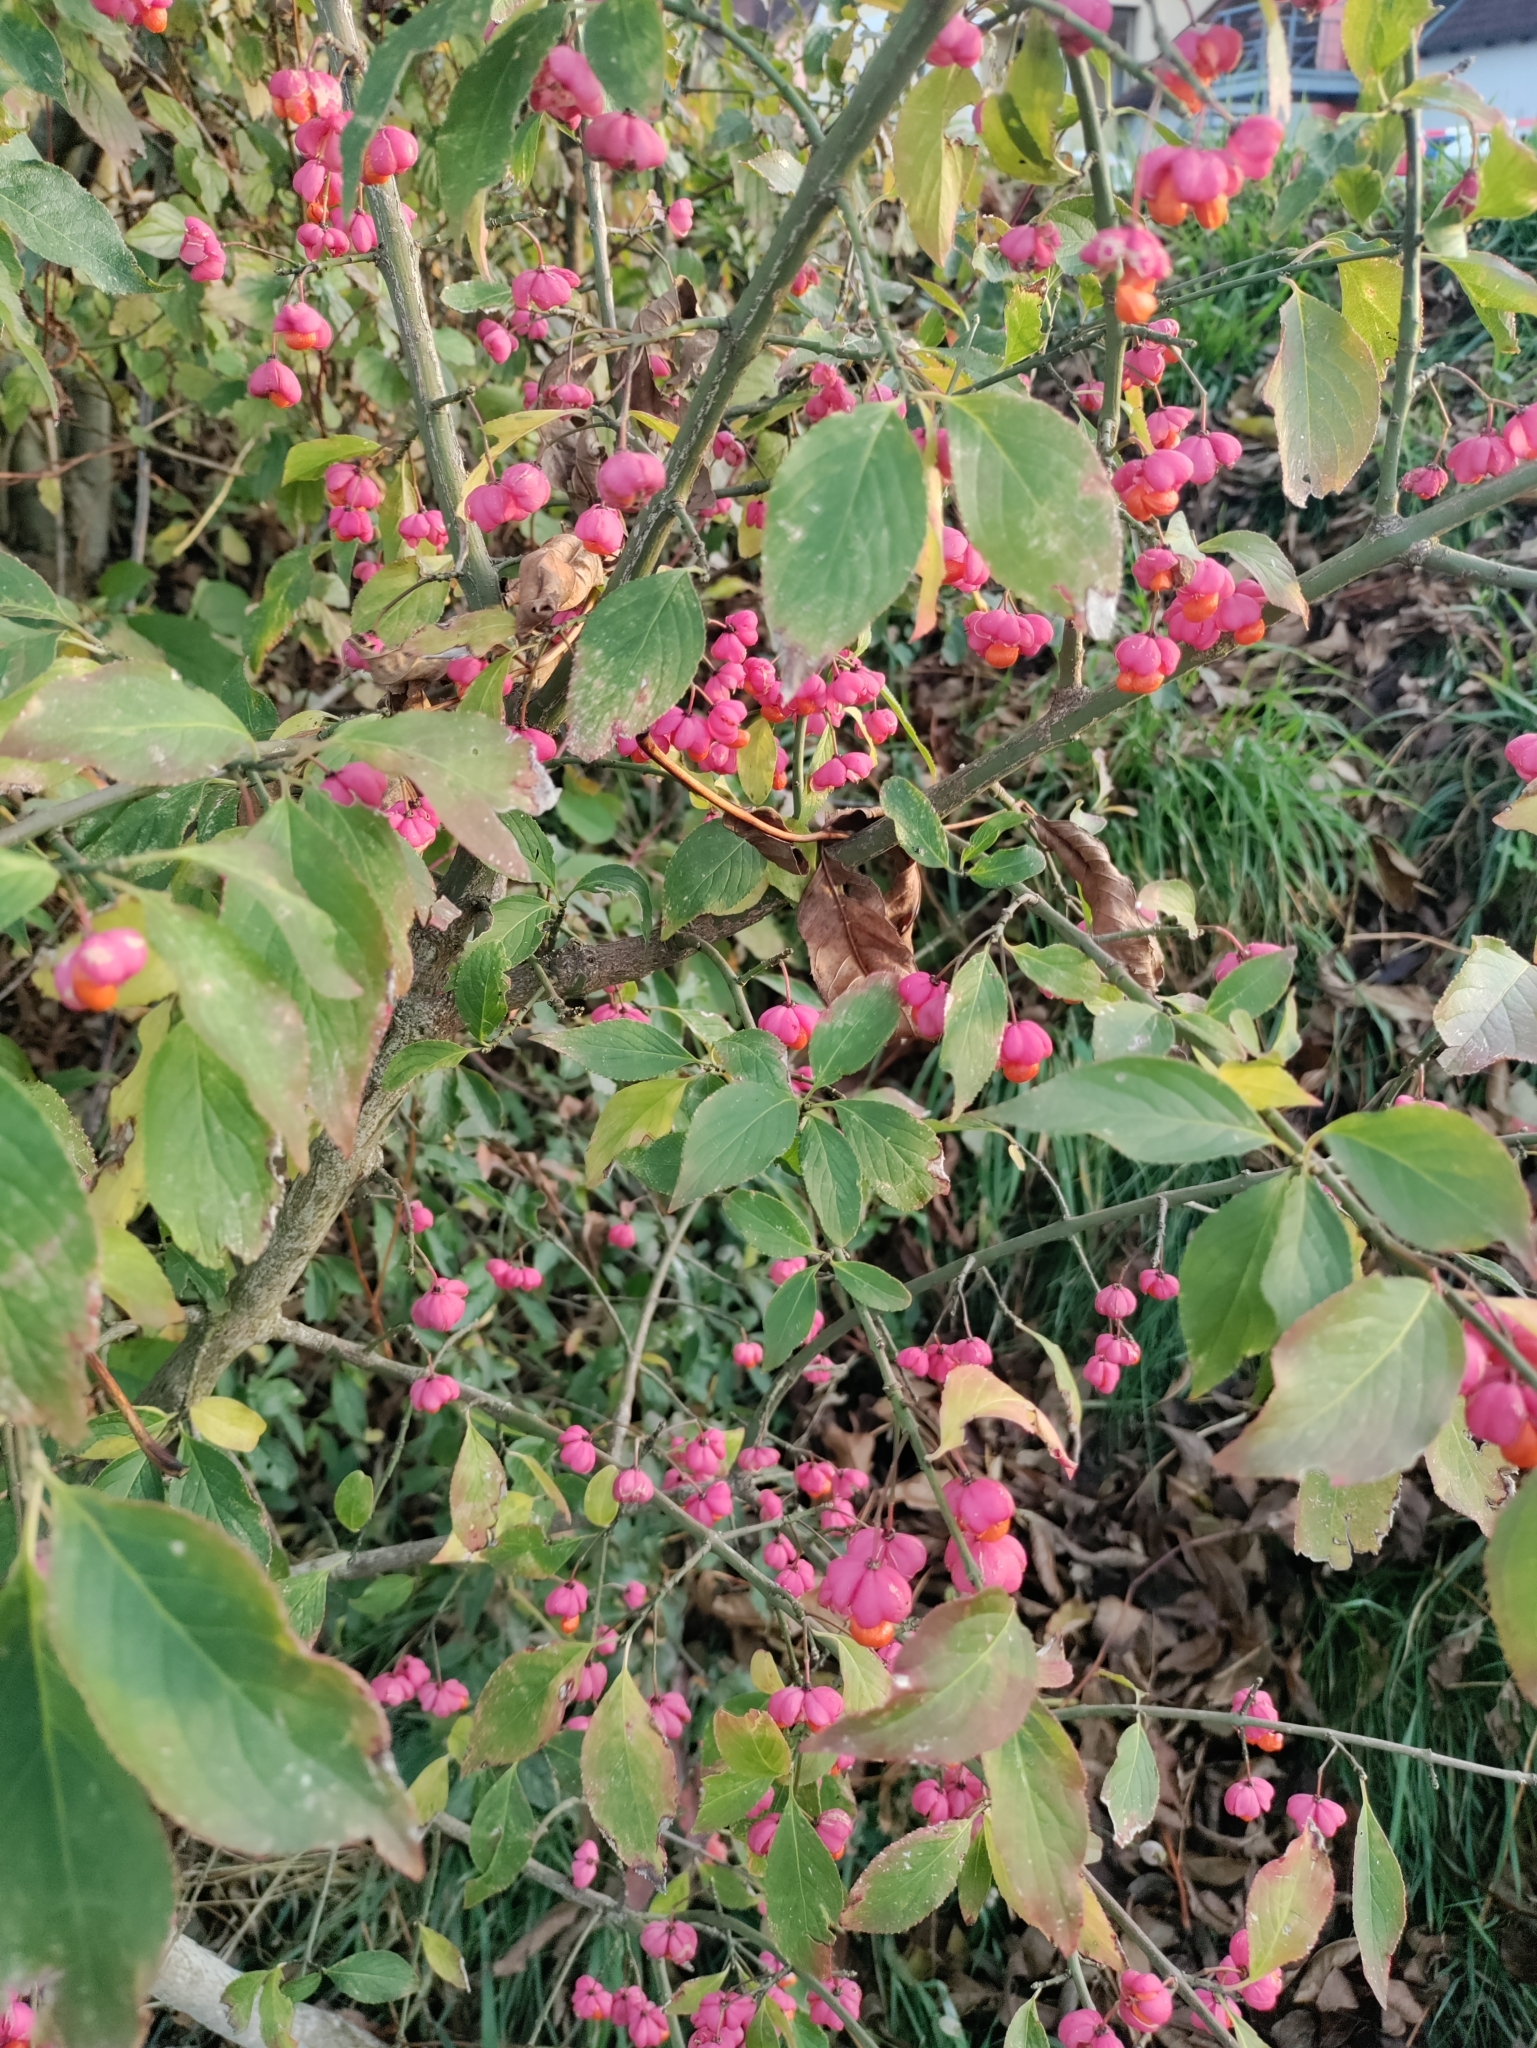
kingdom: Plantae
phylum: Tracheophyta
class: Magnoliopsida
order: Celastrales
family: Celastraceae
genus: Euonymus
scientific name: Euonymus europaeus
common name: Spindle
